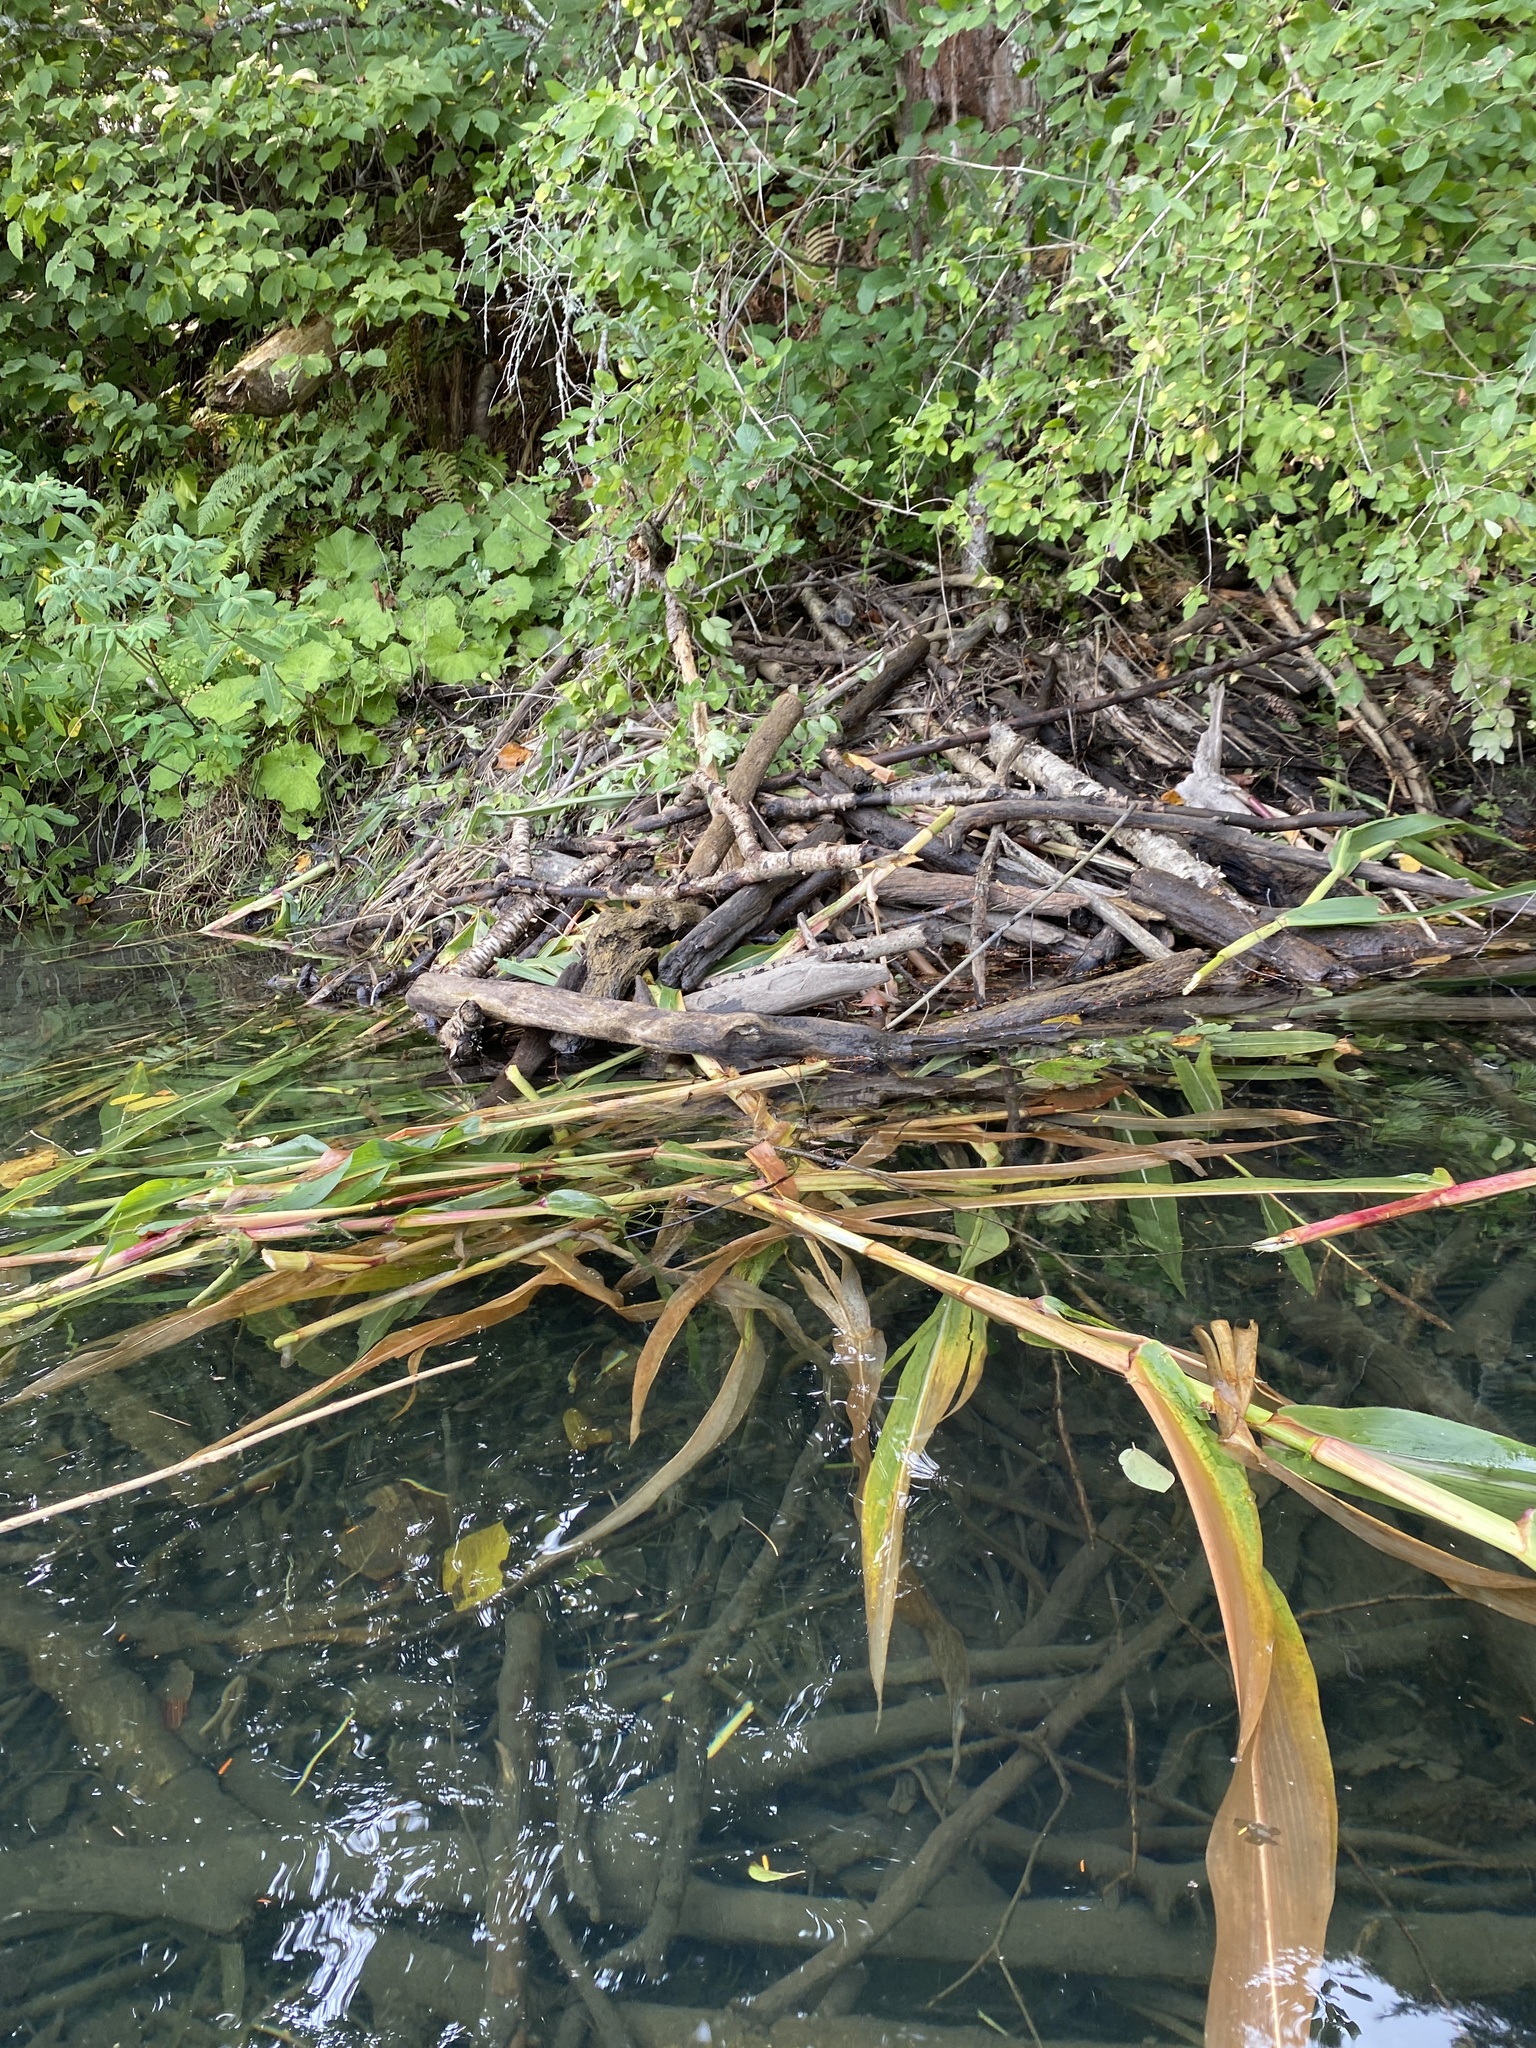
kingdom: Animalia
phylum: Chordata
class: Mammalia
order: Rodentia
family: Castoridae
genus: Castor
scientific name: Castor canadensis
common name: American beaver
